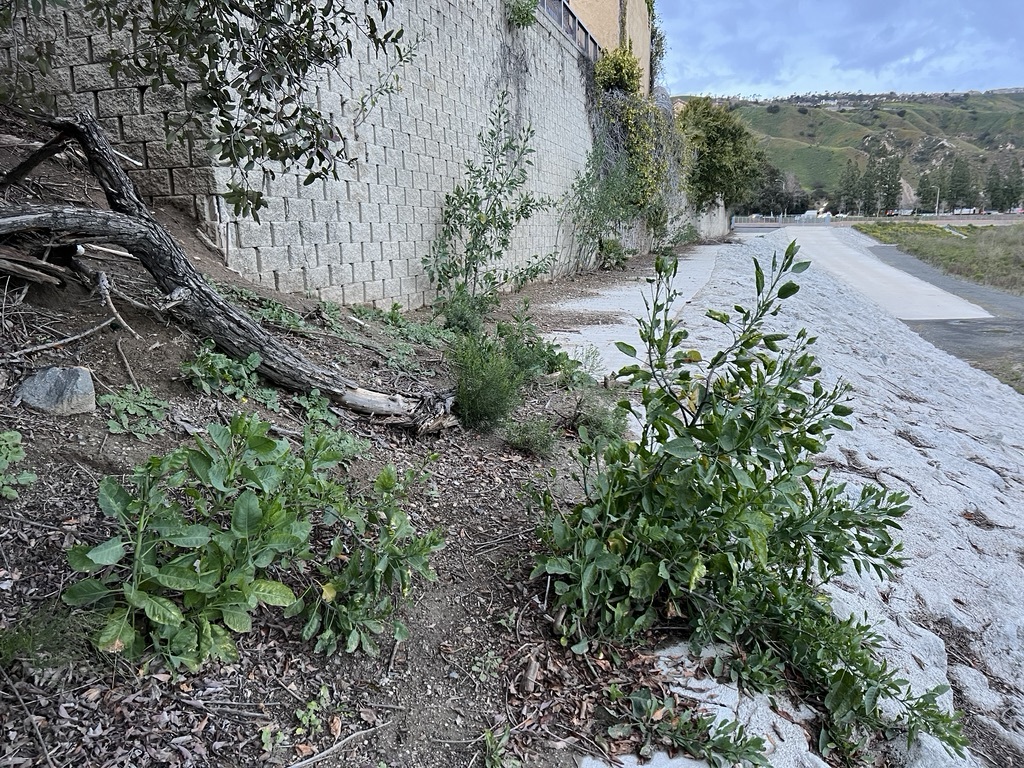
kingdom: Plantae
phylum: Tracheophyta
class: Magnoliopsida
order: Solanales
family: Solanaceae
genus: Nicotiana
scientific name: Nicotiana glauca
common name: Tree tobacco
